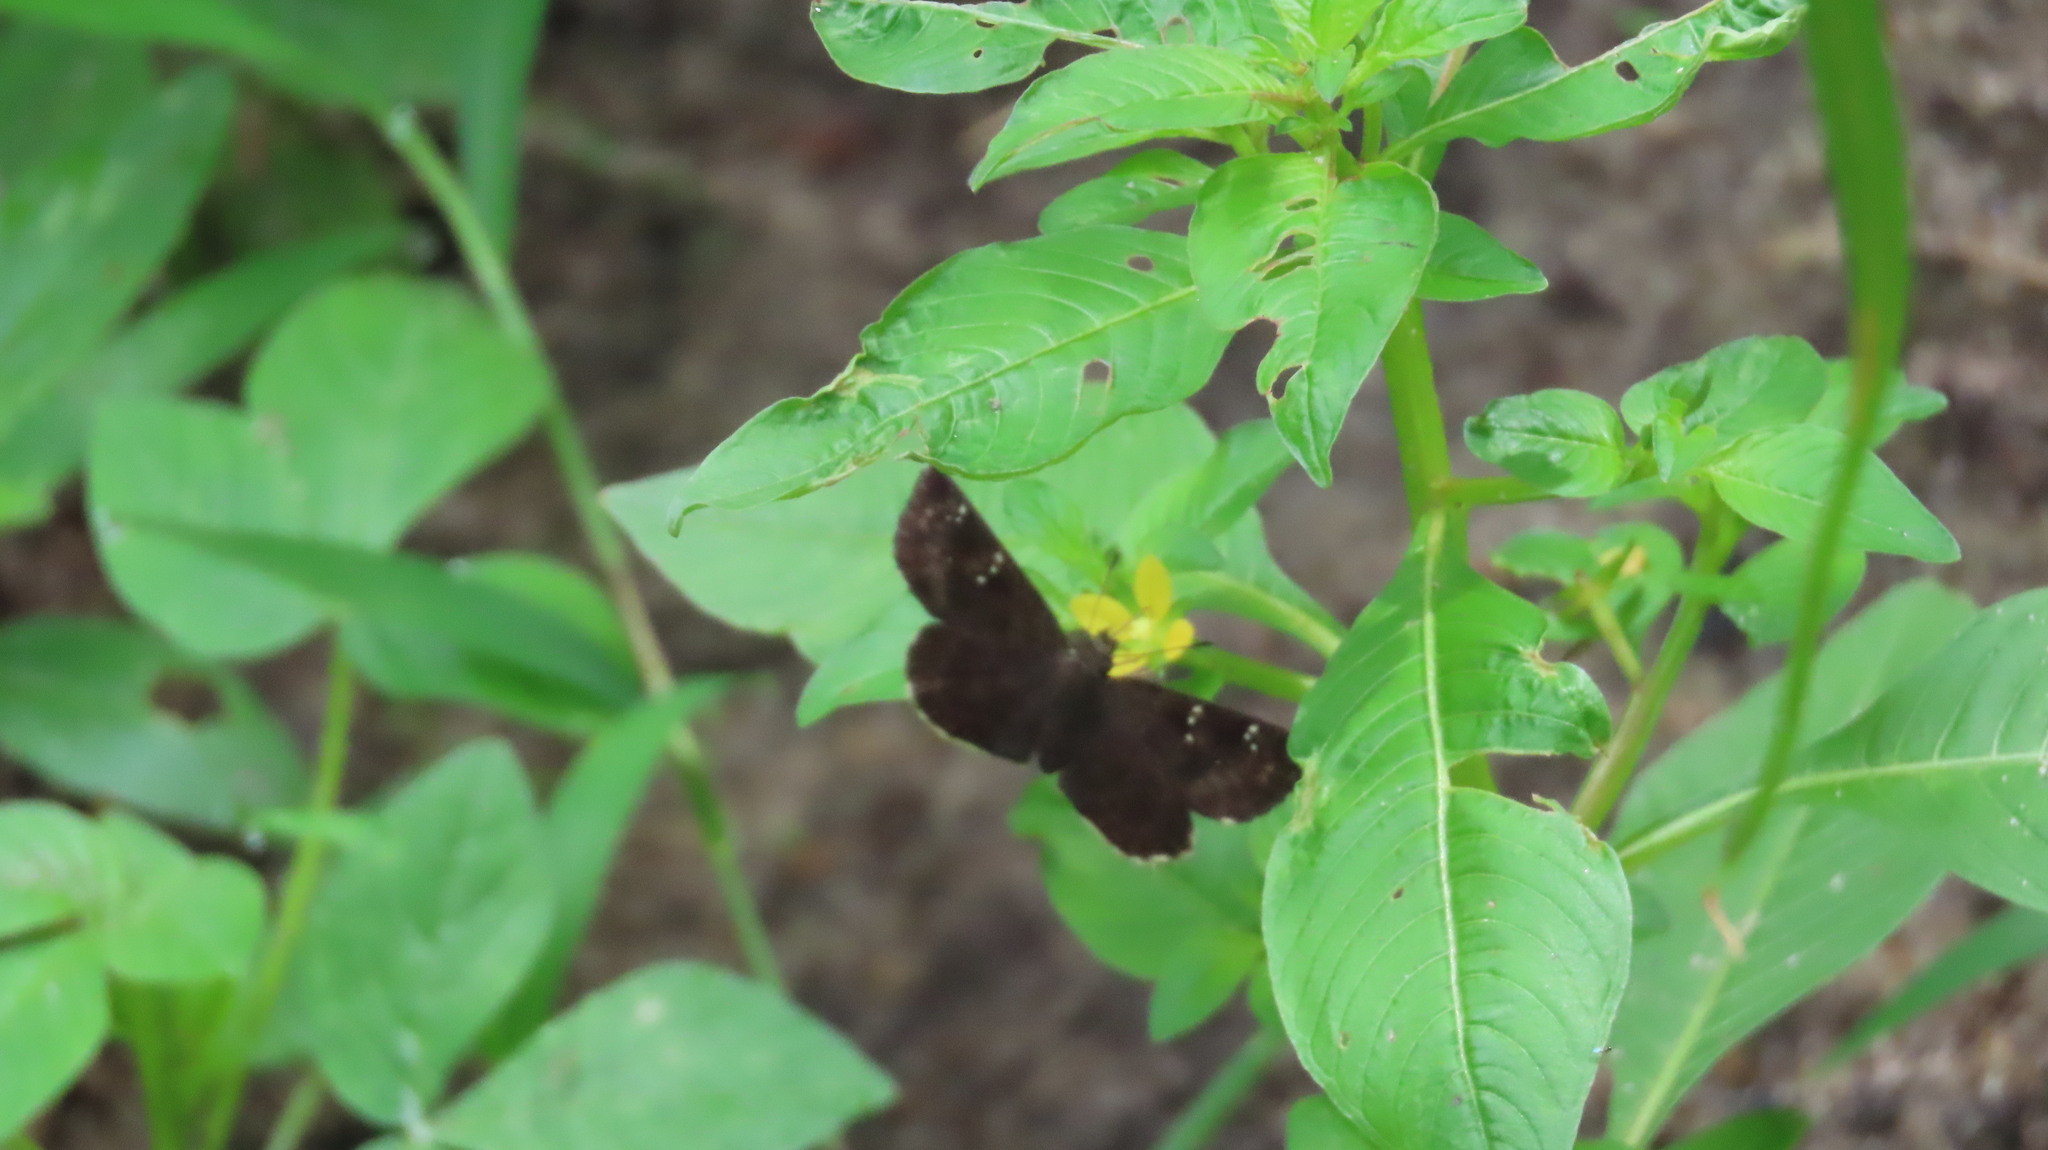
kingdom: Animalia
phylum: Arthropoda
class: Insecta
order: Lepidoptera
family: Hesperiidae
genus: Sarangesa
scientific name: Sarangesa dasahara
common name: Common small flat
